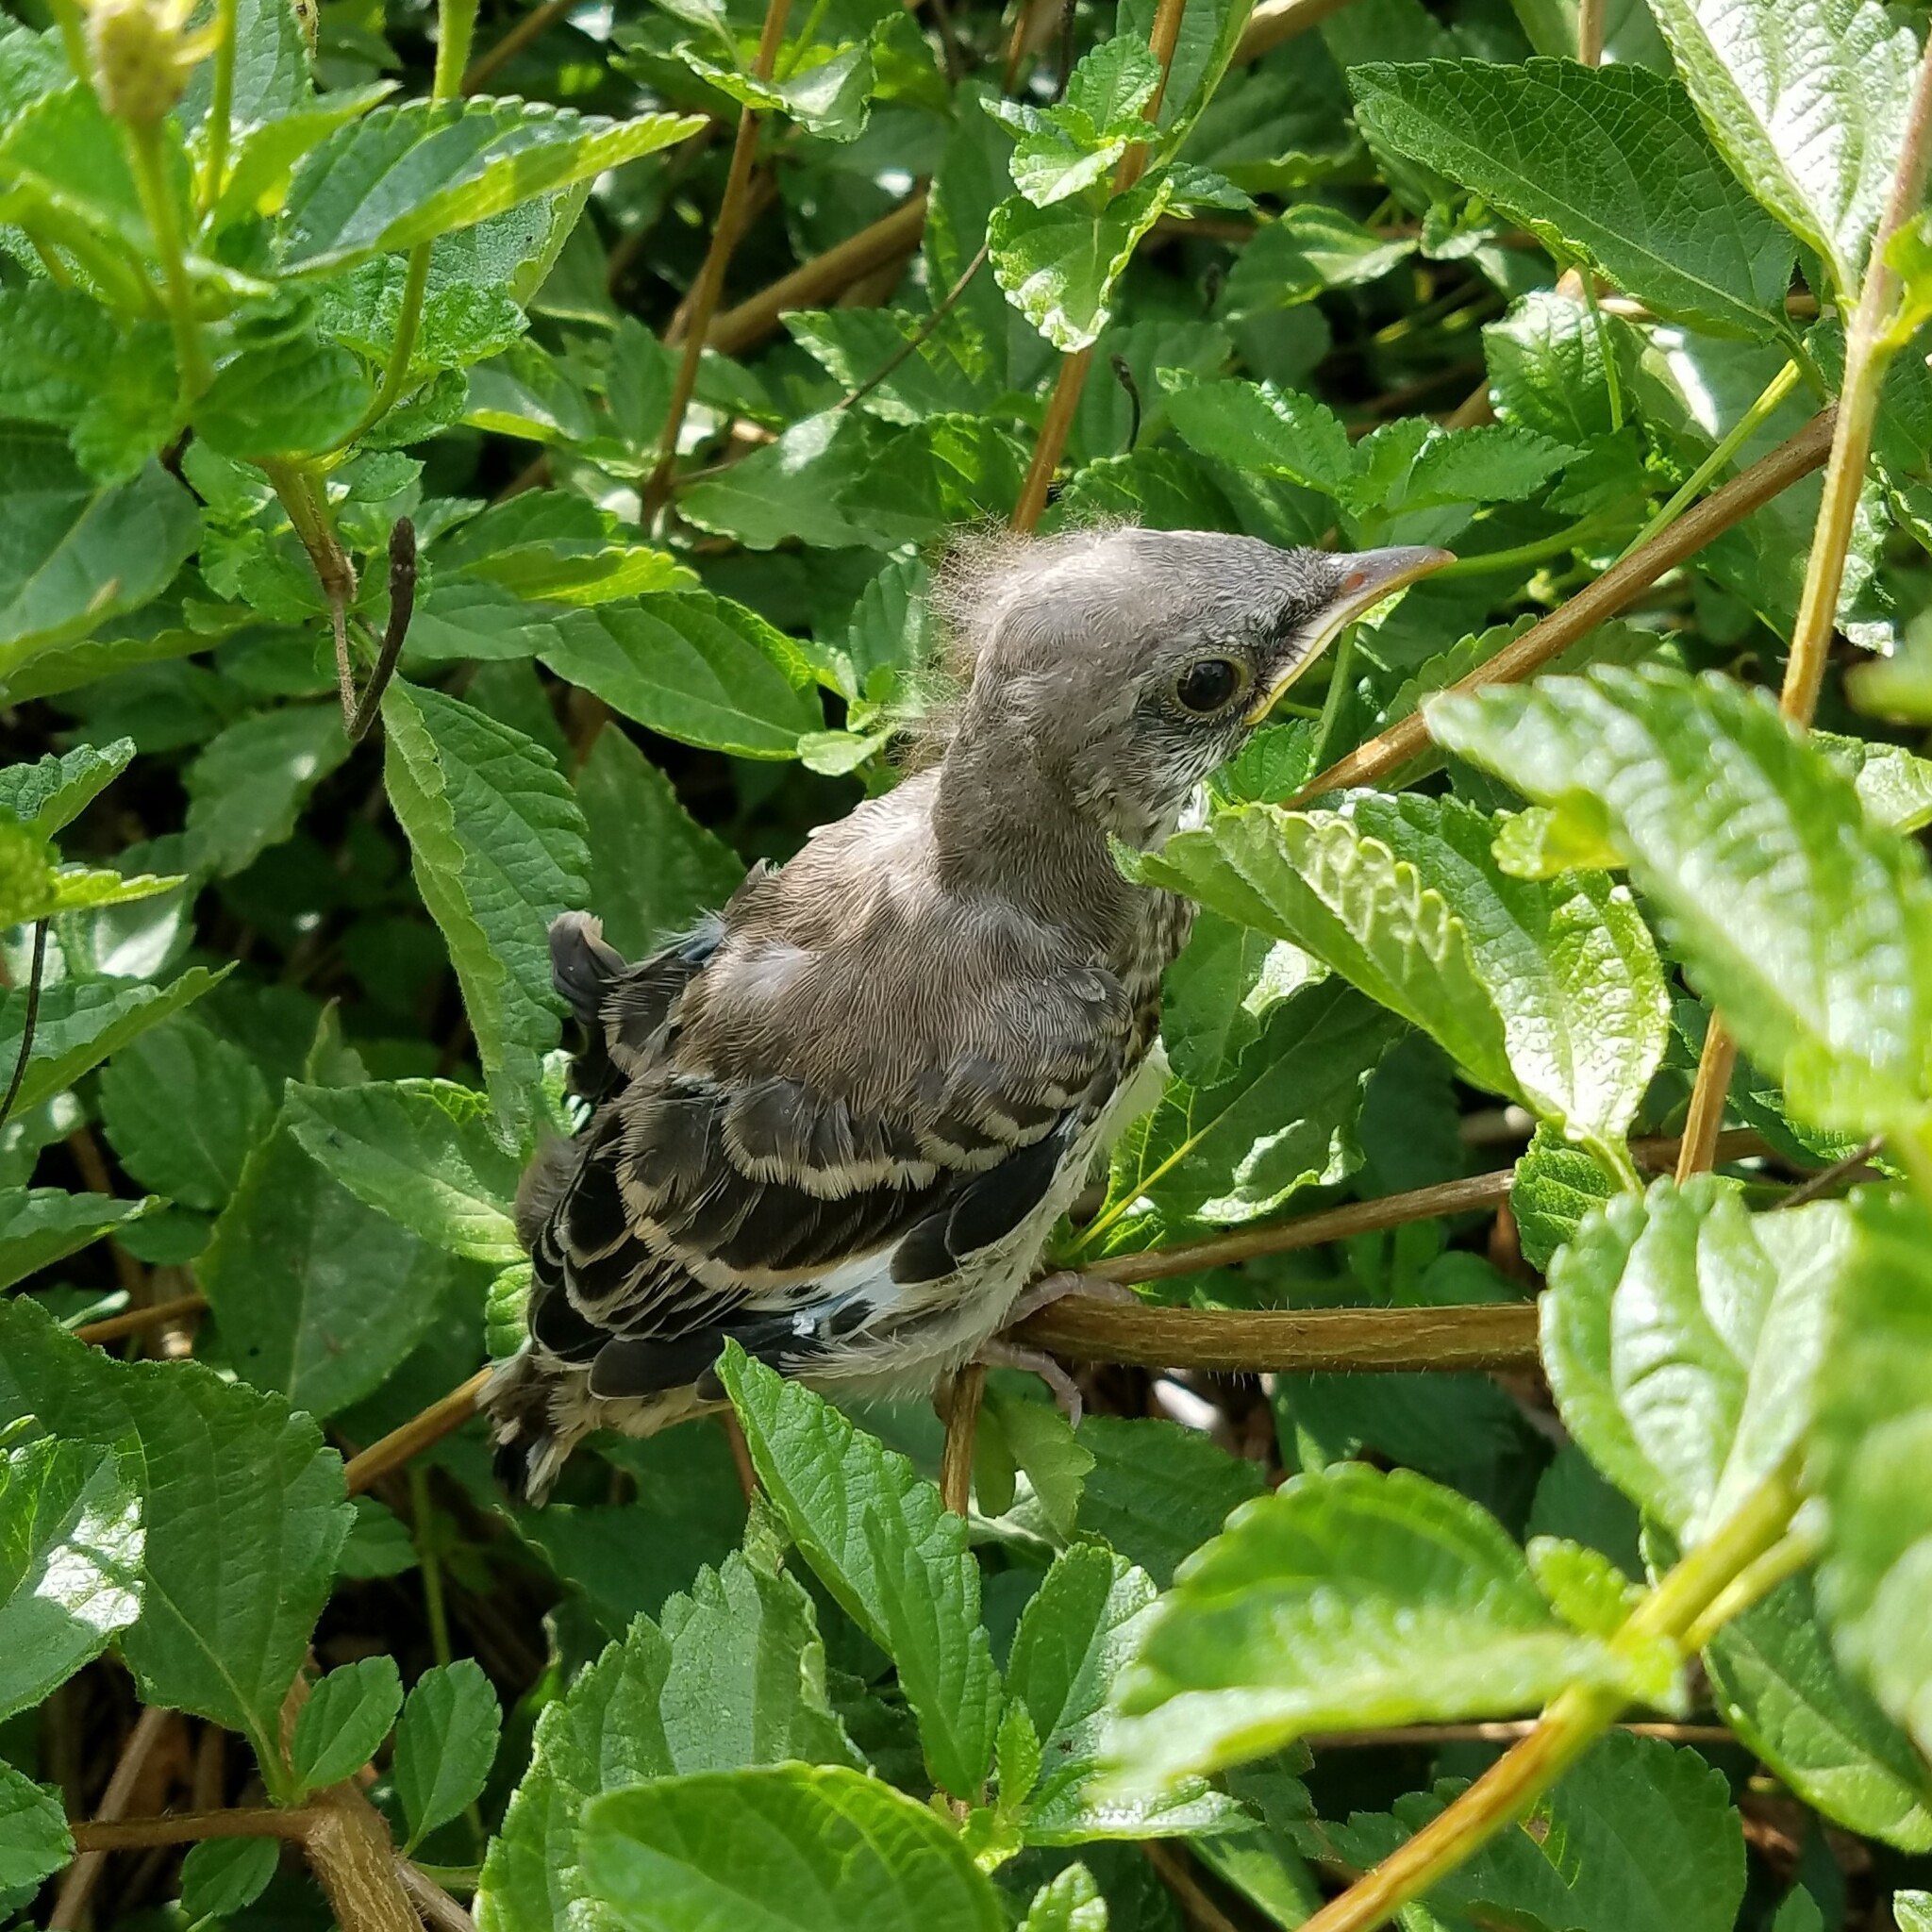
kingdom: Animalia
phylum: Chordata
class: Aves
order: Passeriformes
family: Mimidae
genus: Mimus
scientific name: Mimus polyglottos
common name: Northern mockingbird
